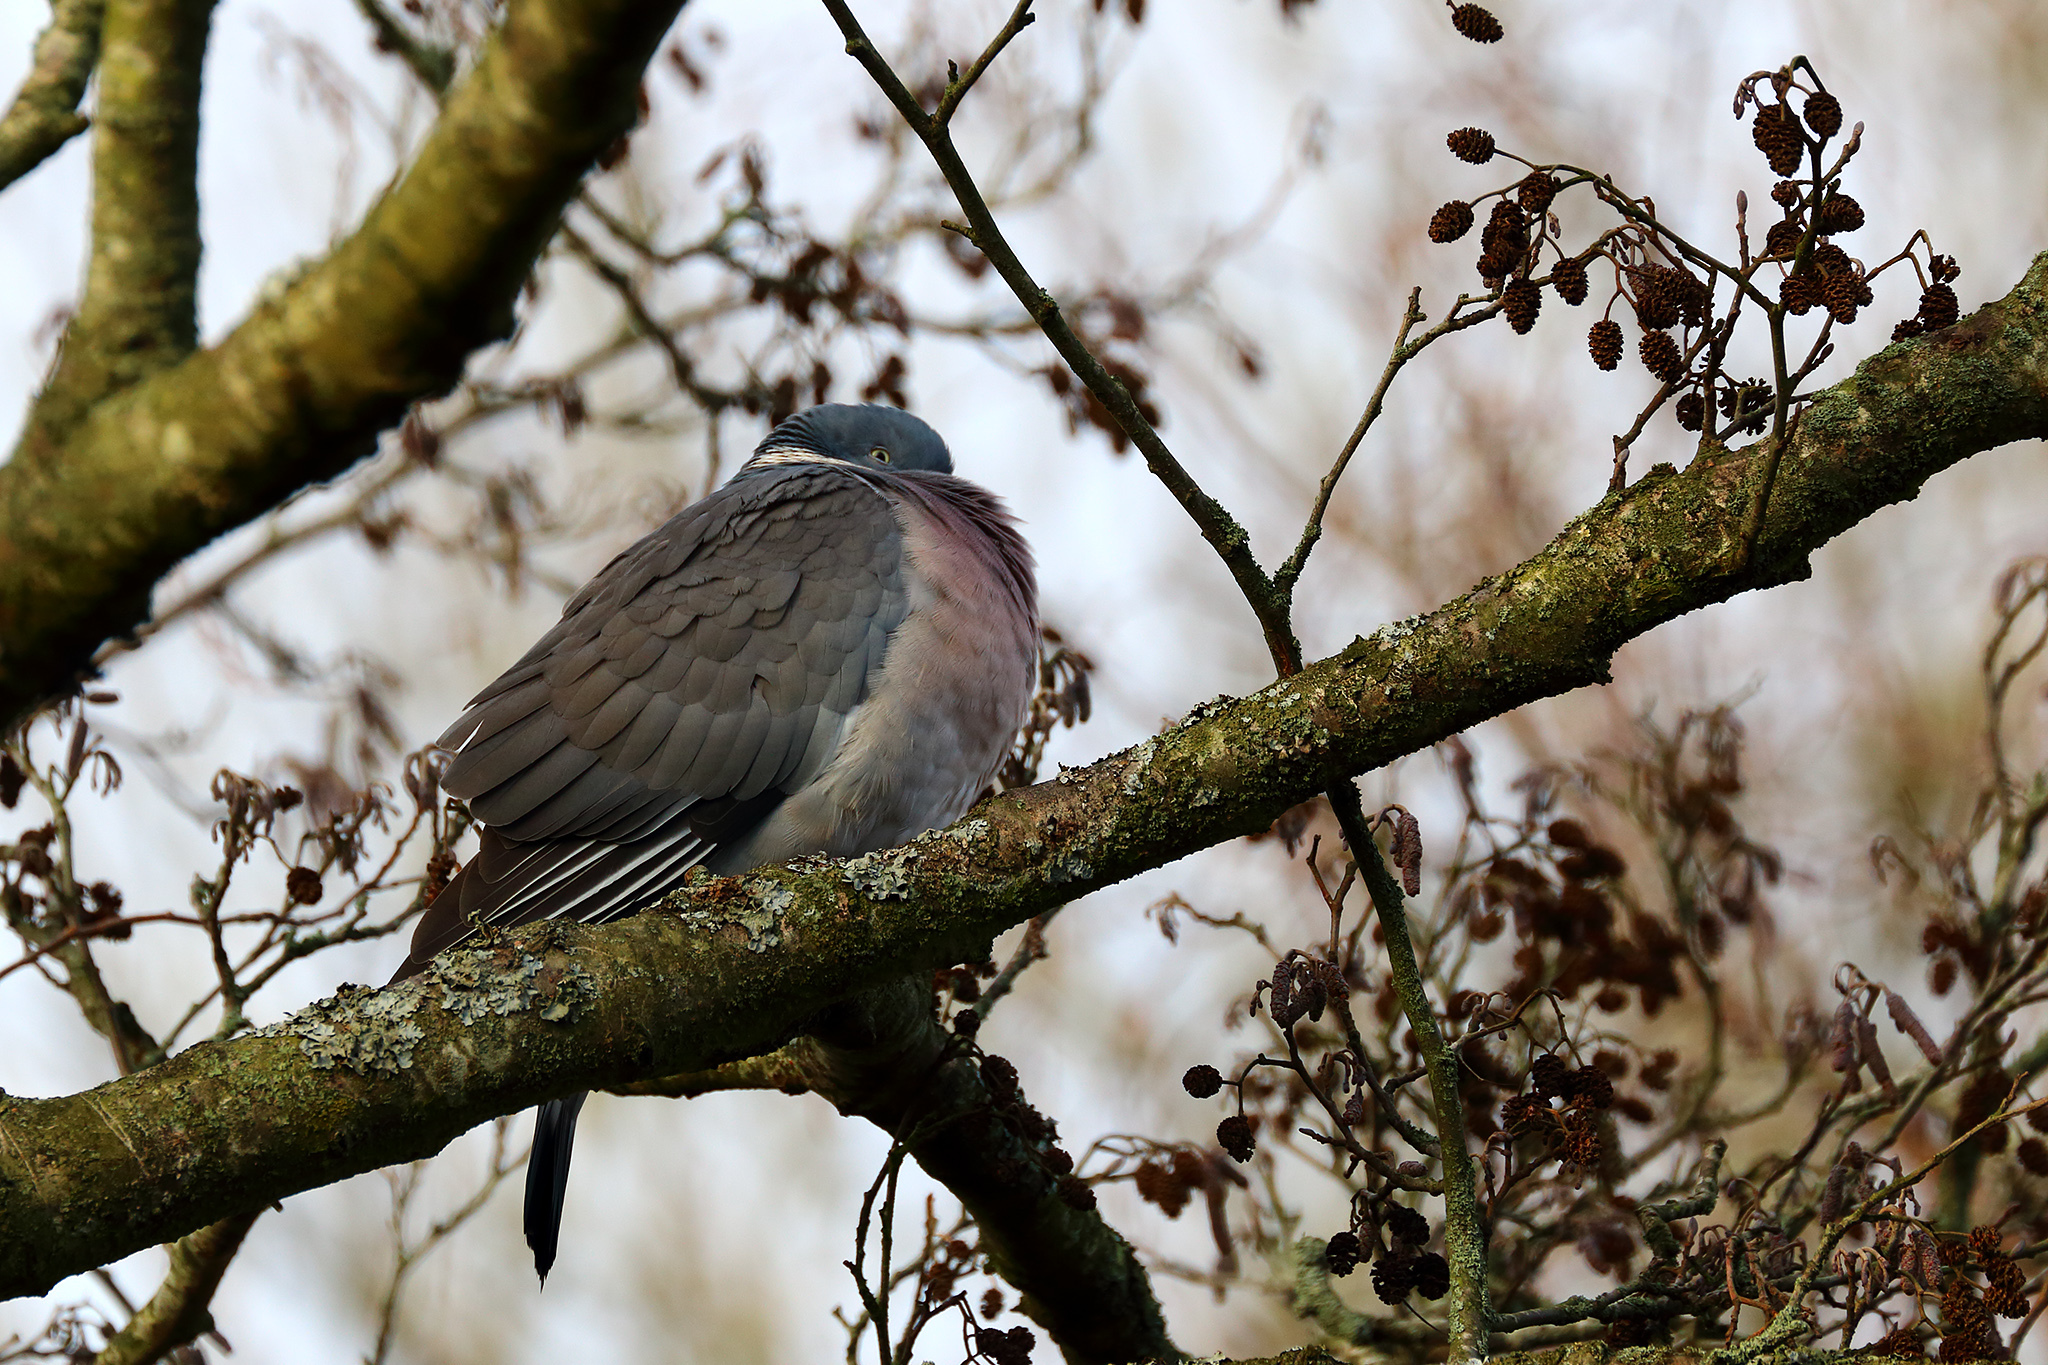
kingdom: Animalia
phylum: Chordata
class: Aves
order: Columbiformes
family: Columbidae
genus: Columba
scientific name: Columba palumbus
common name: Common wood pigeon
